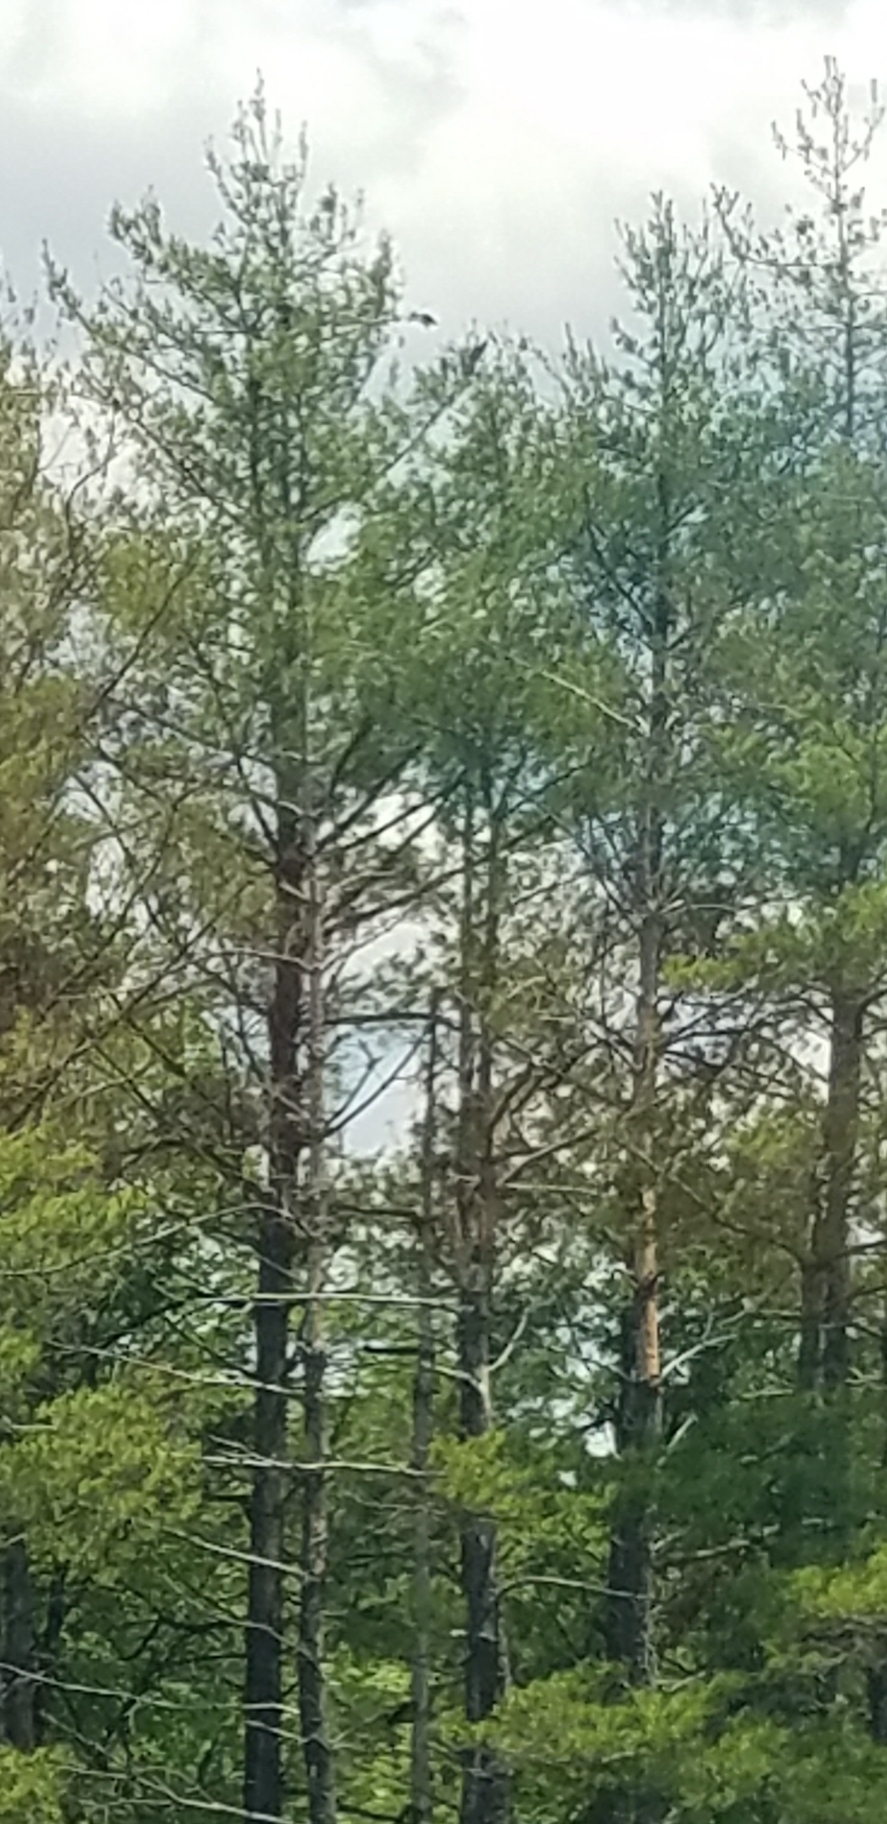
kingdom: Plantae
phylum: Tracheophyta
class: Pinopsida
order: Pinales
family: Pinaceae
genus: Pinus
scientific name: Pinus strobus
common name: Weymouth pine
